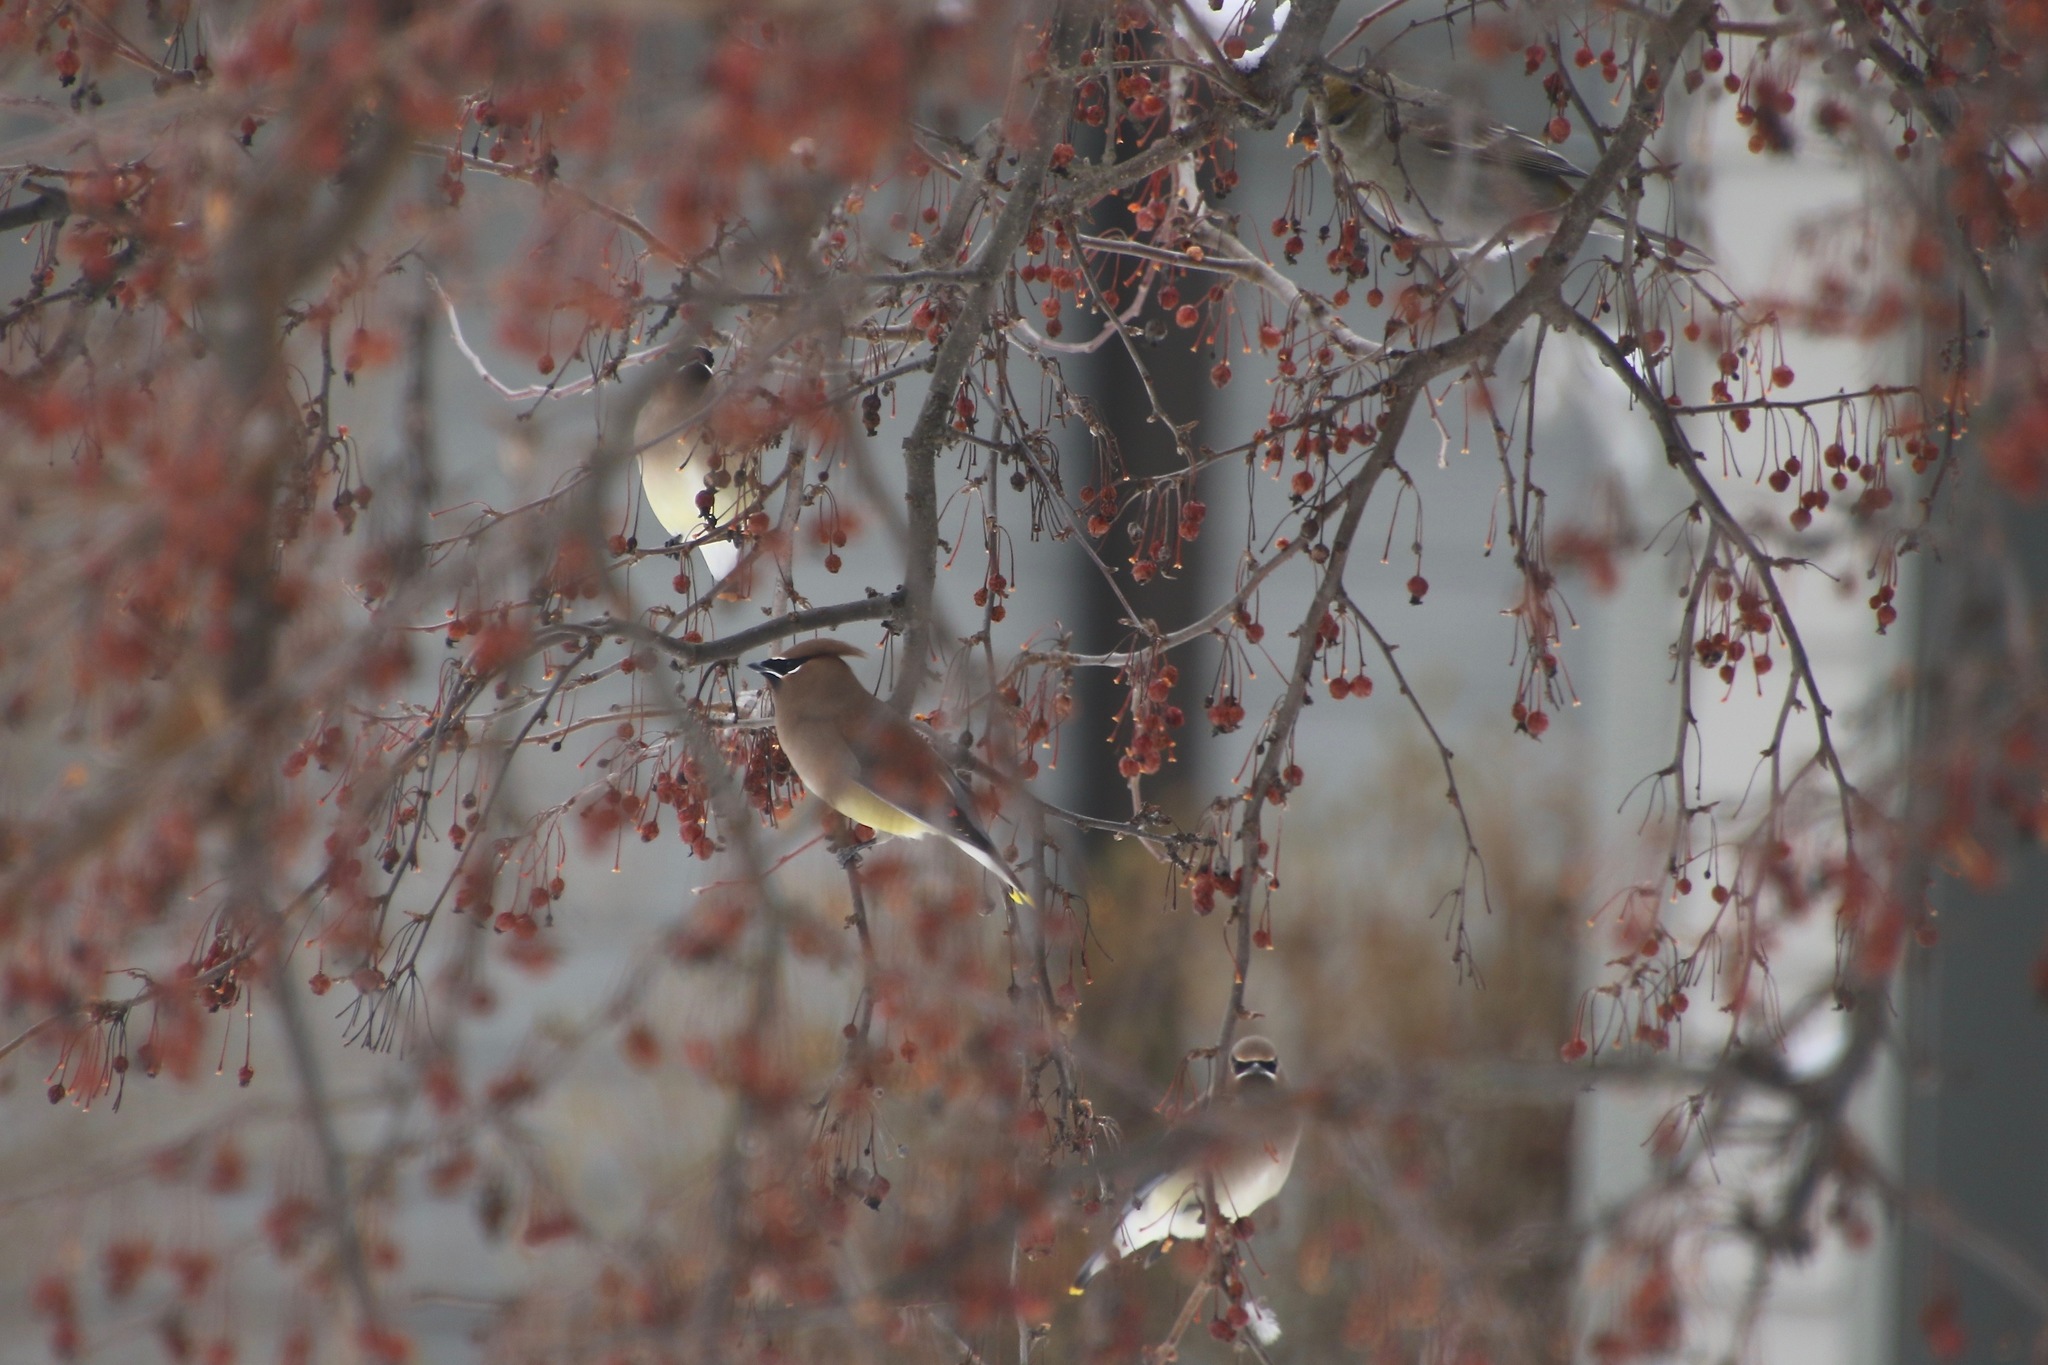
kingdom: Animalia
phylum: Chordata
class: Aves
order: Passeriformes
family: Bombycillidae
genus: Bombycilla
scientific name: Bombycilla cedrorum
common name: Cedar waxwing
